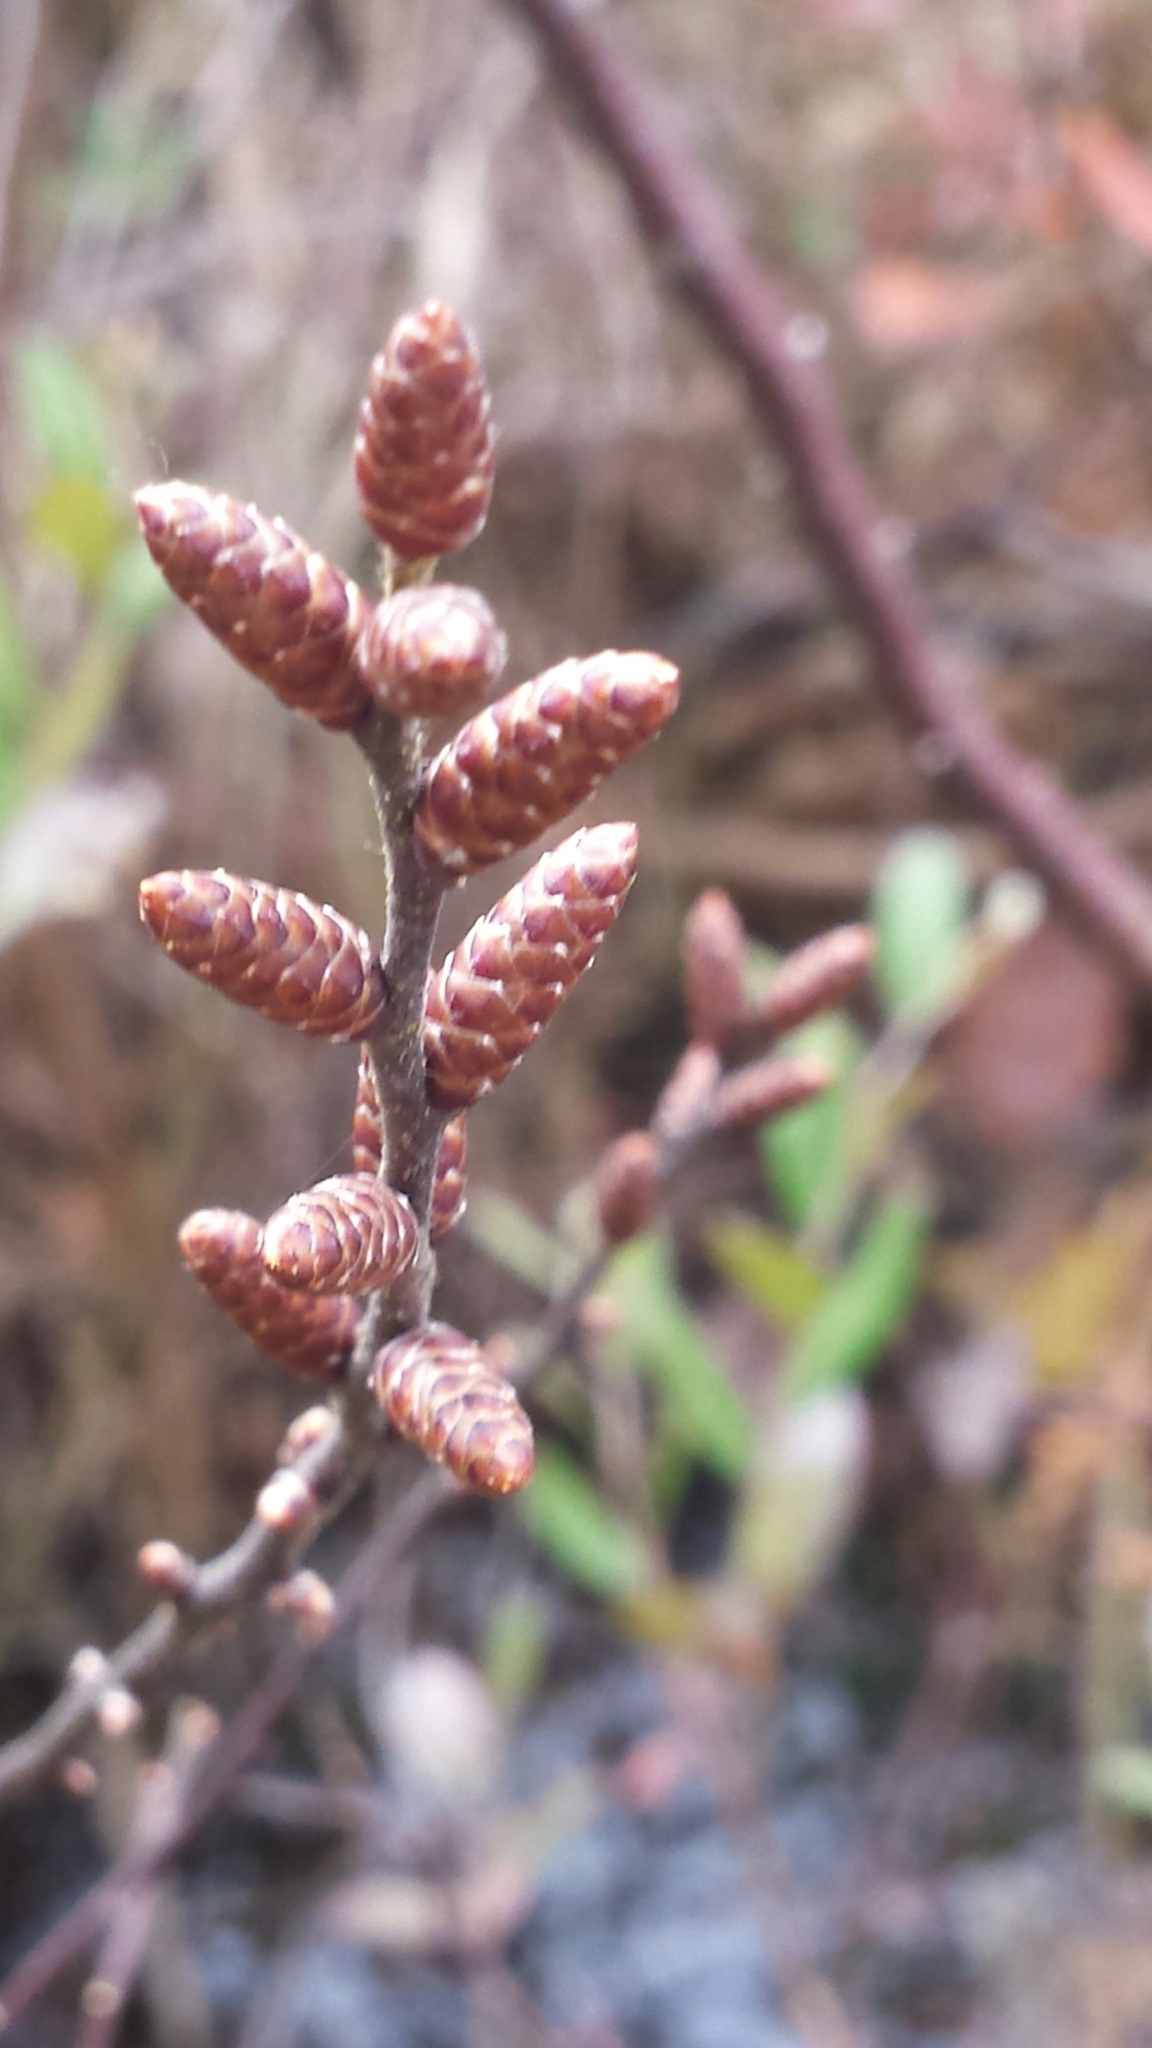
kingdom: Plantae
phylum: Tracheophyta
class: Magnoliopsida
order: Fagales
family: Myricaceae
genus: Myrica
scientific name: Myrica gale
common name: Sweet gale
